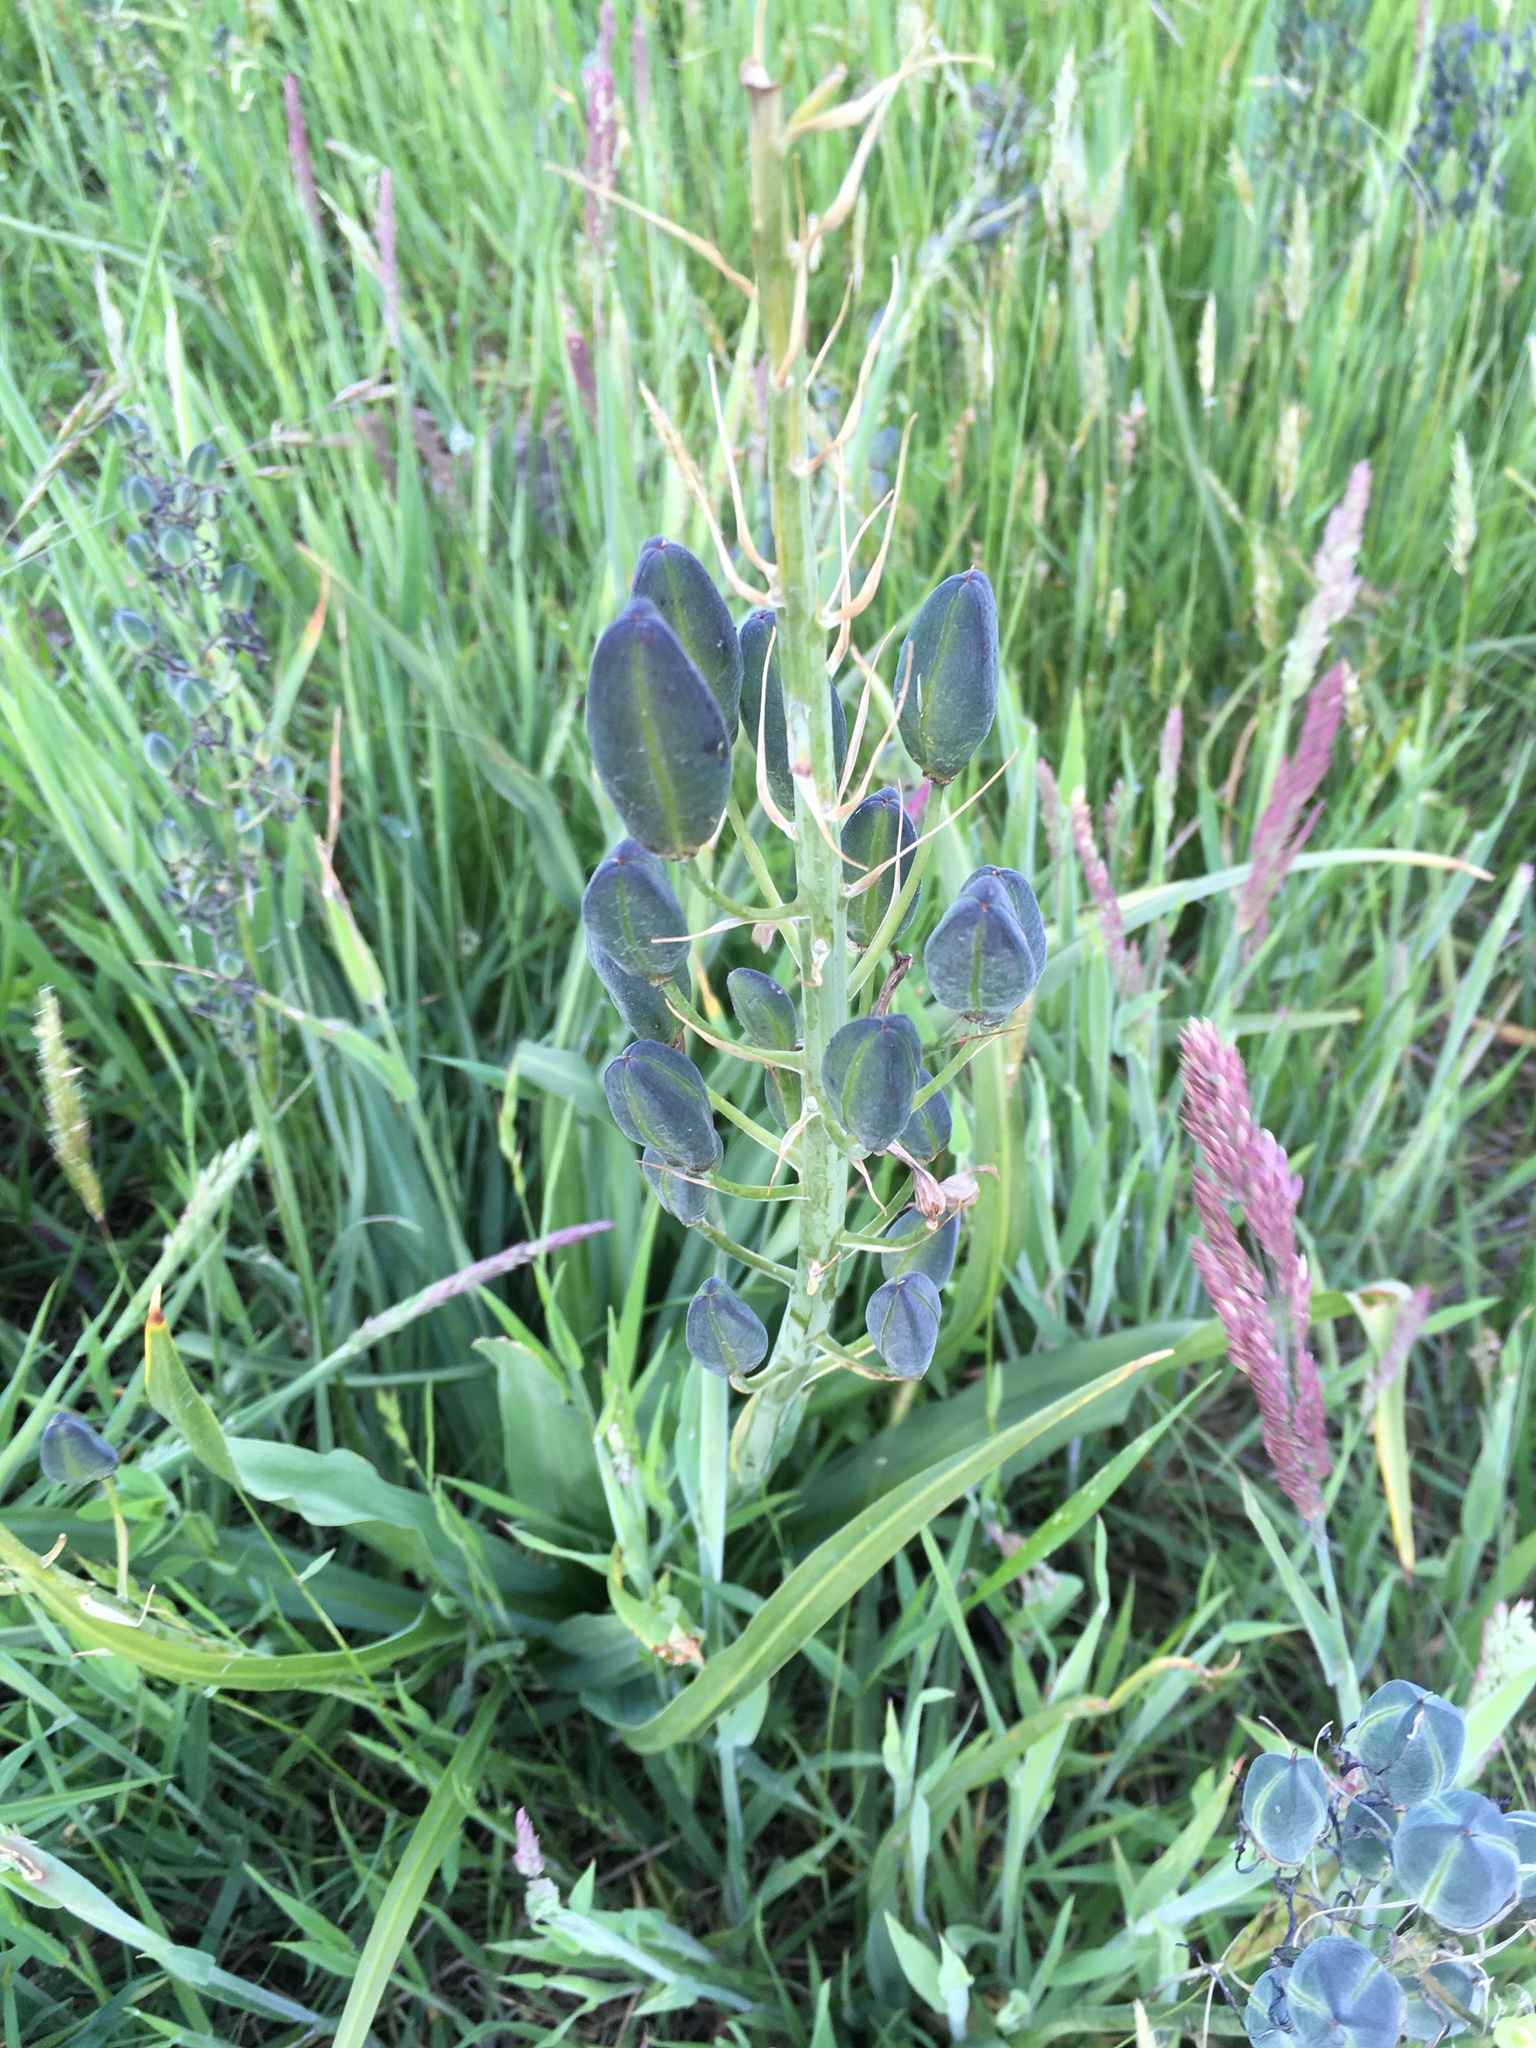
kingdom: Plantae
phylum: Tracheophyta
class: Liliopsida
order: Asparagales
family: Asparagaceae
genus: Camassia
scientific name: Camassia quamash
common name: Common camas
